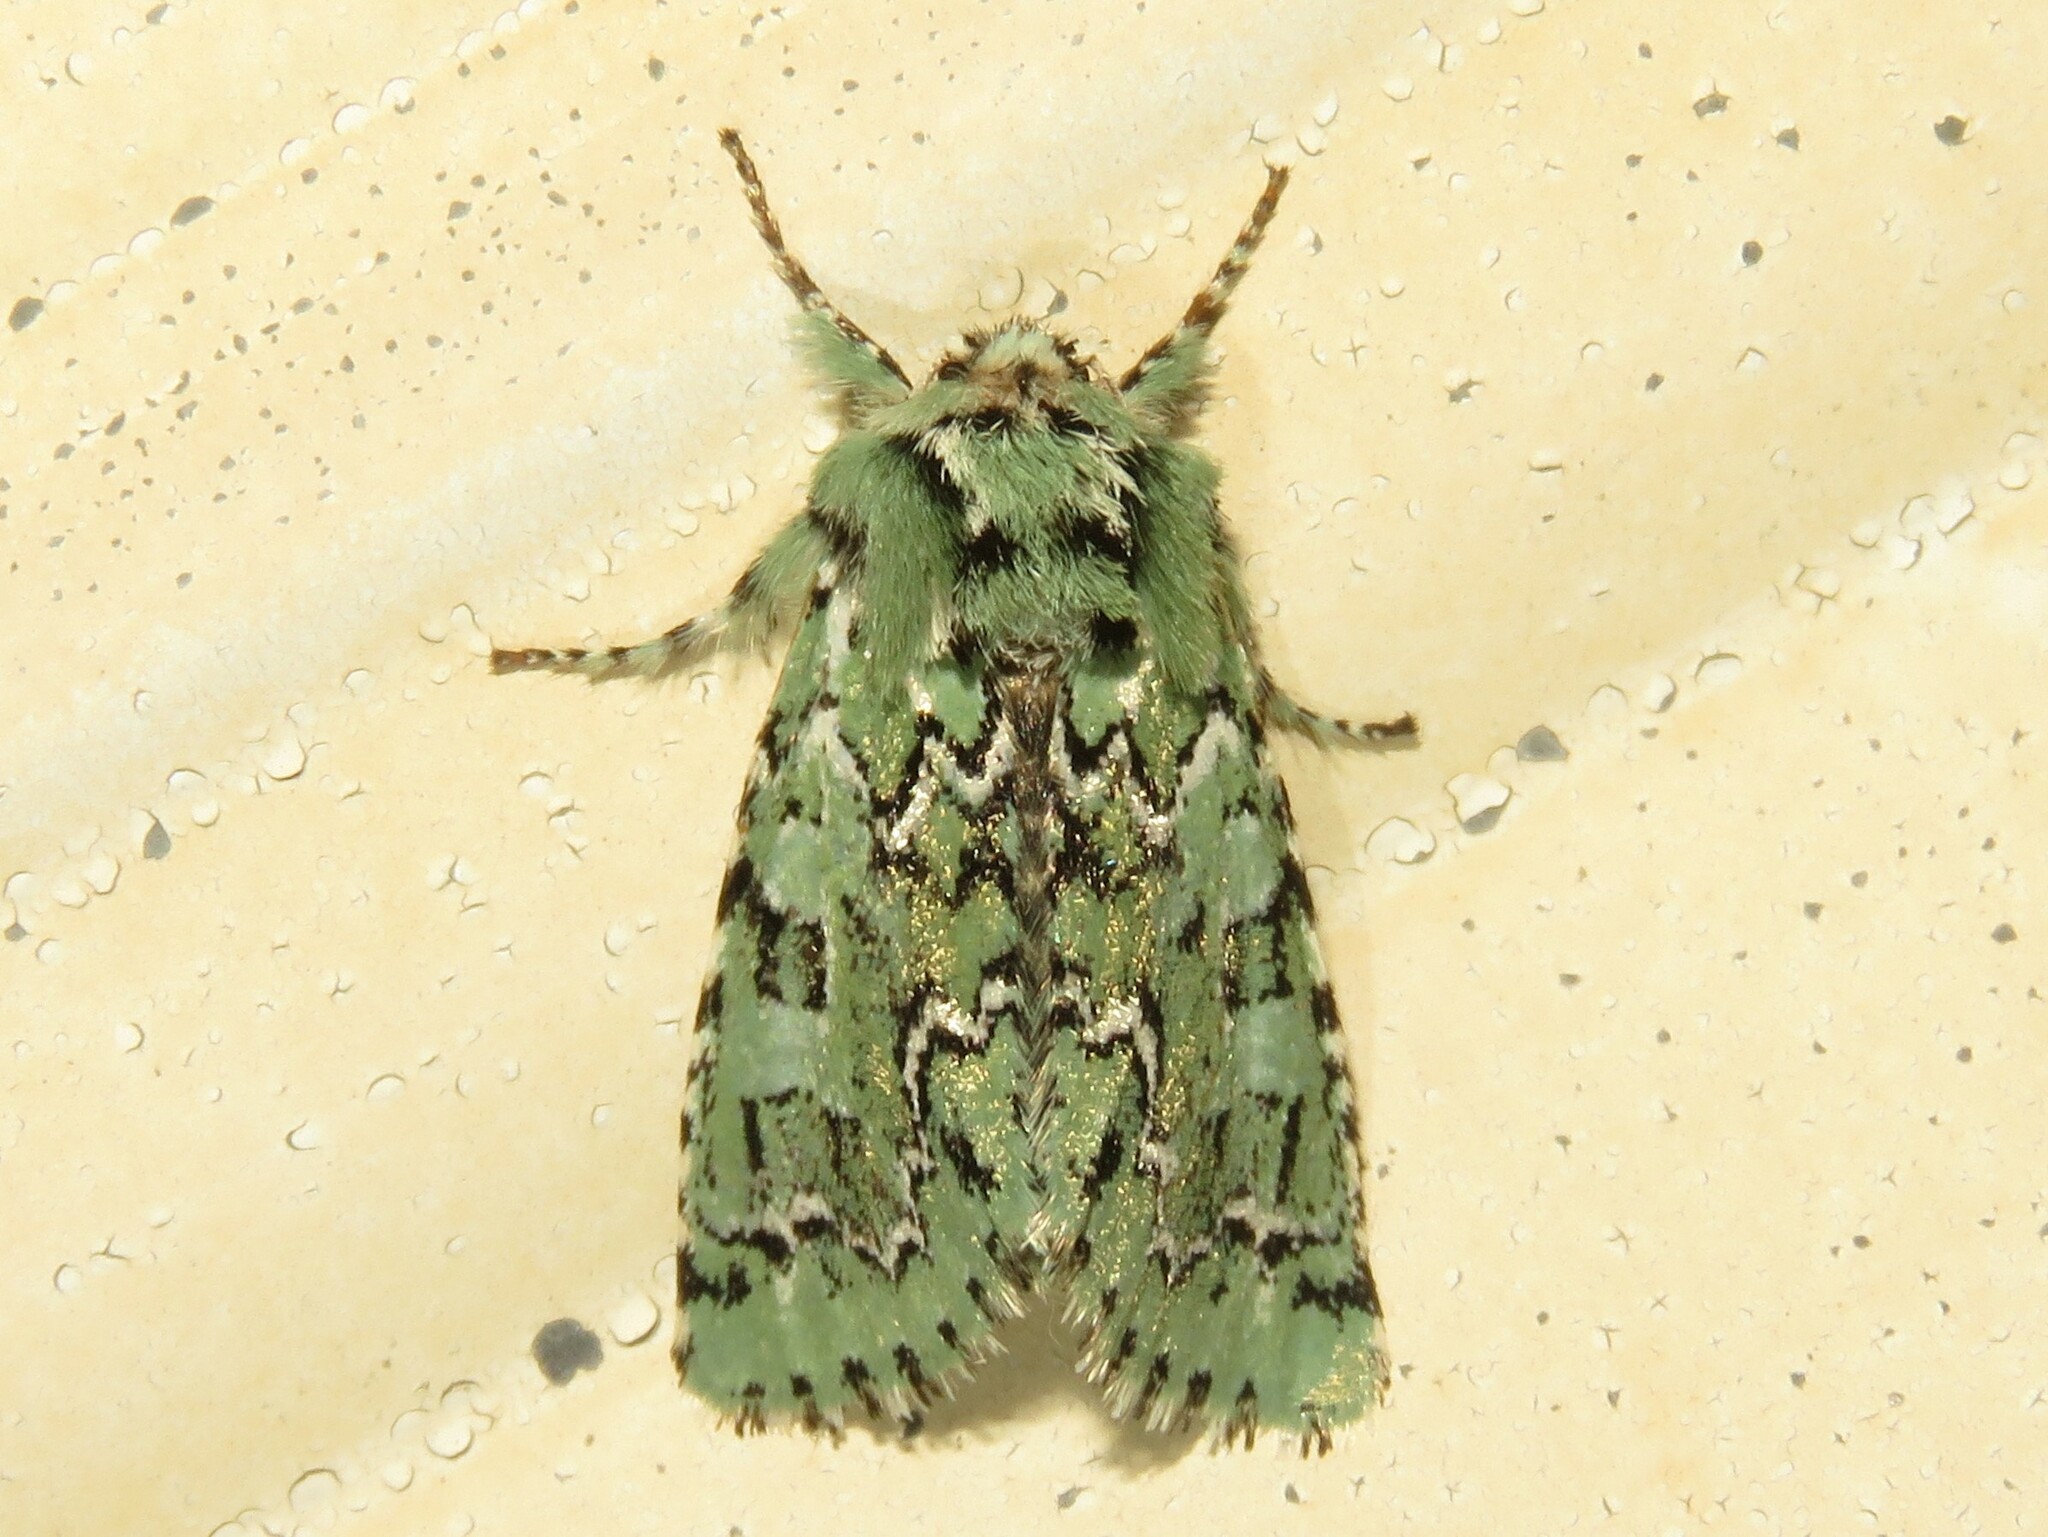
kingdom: Animalia
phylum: Arthropoda
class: Insecta
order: Lepidoptera
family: Noctuidae
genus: Feralia
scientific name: Feralia jocosa
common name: Joker
